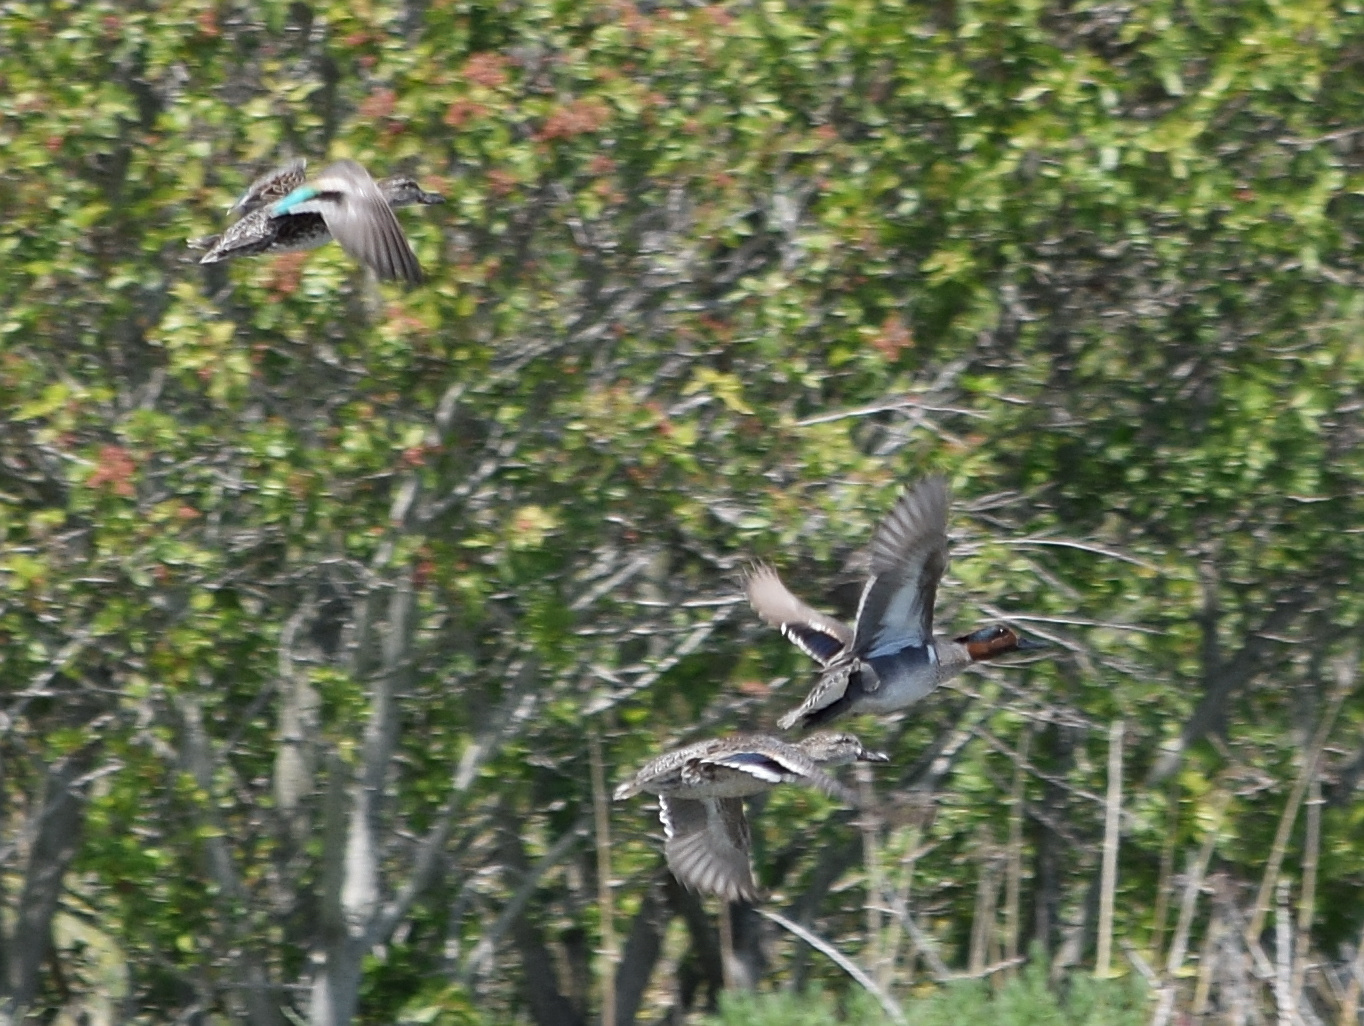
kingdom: Animalia
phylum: Chordata
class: Aves
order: Anseriformes
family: Anatidae
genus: Anas
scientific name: Anas crecca
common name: Eurasian teal
